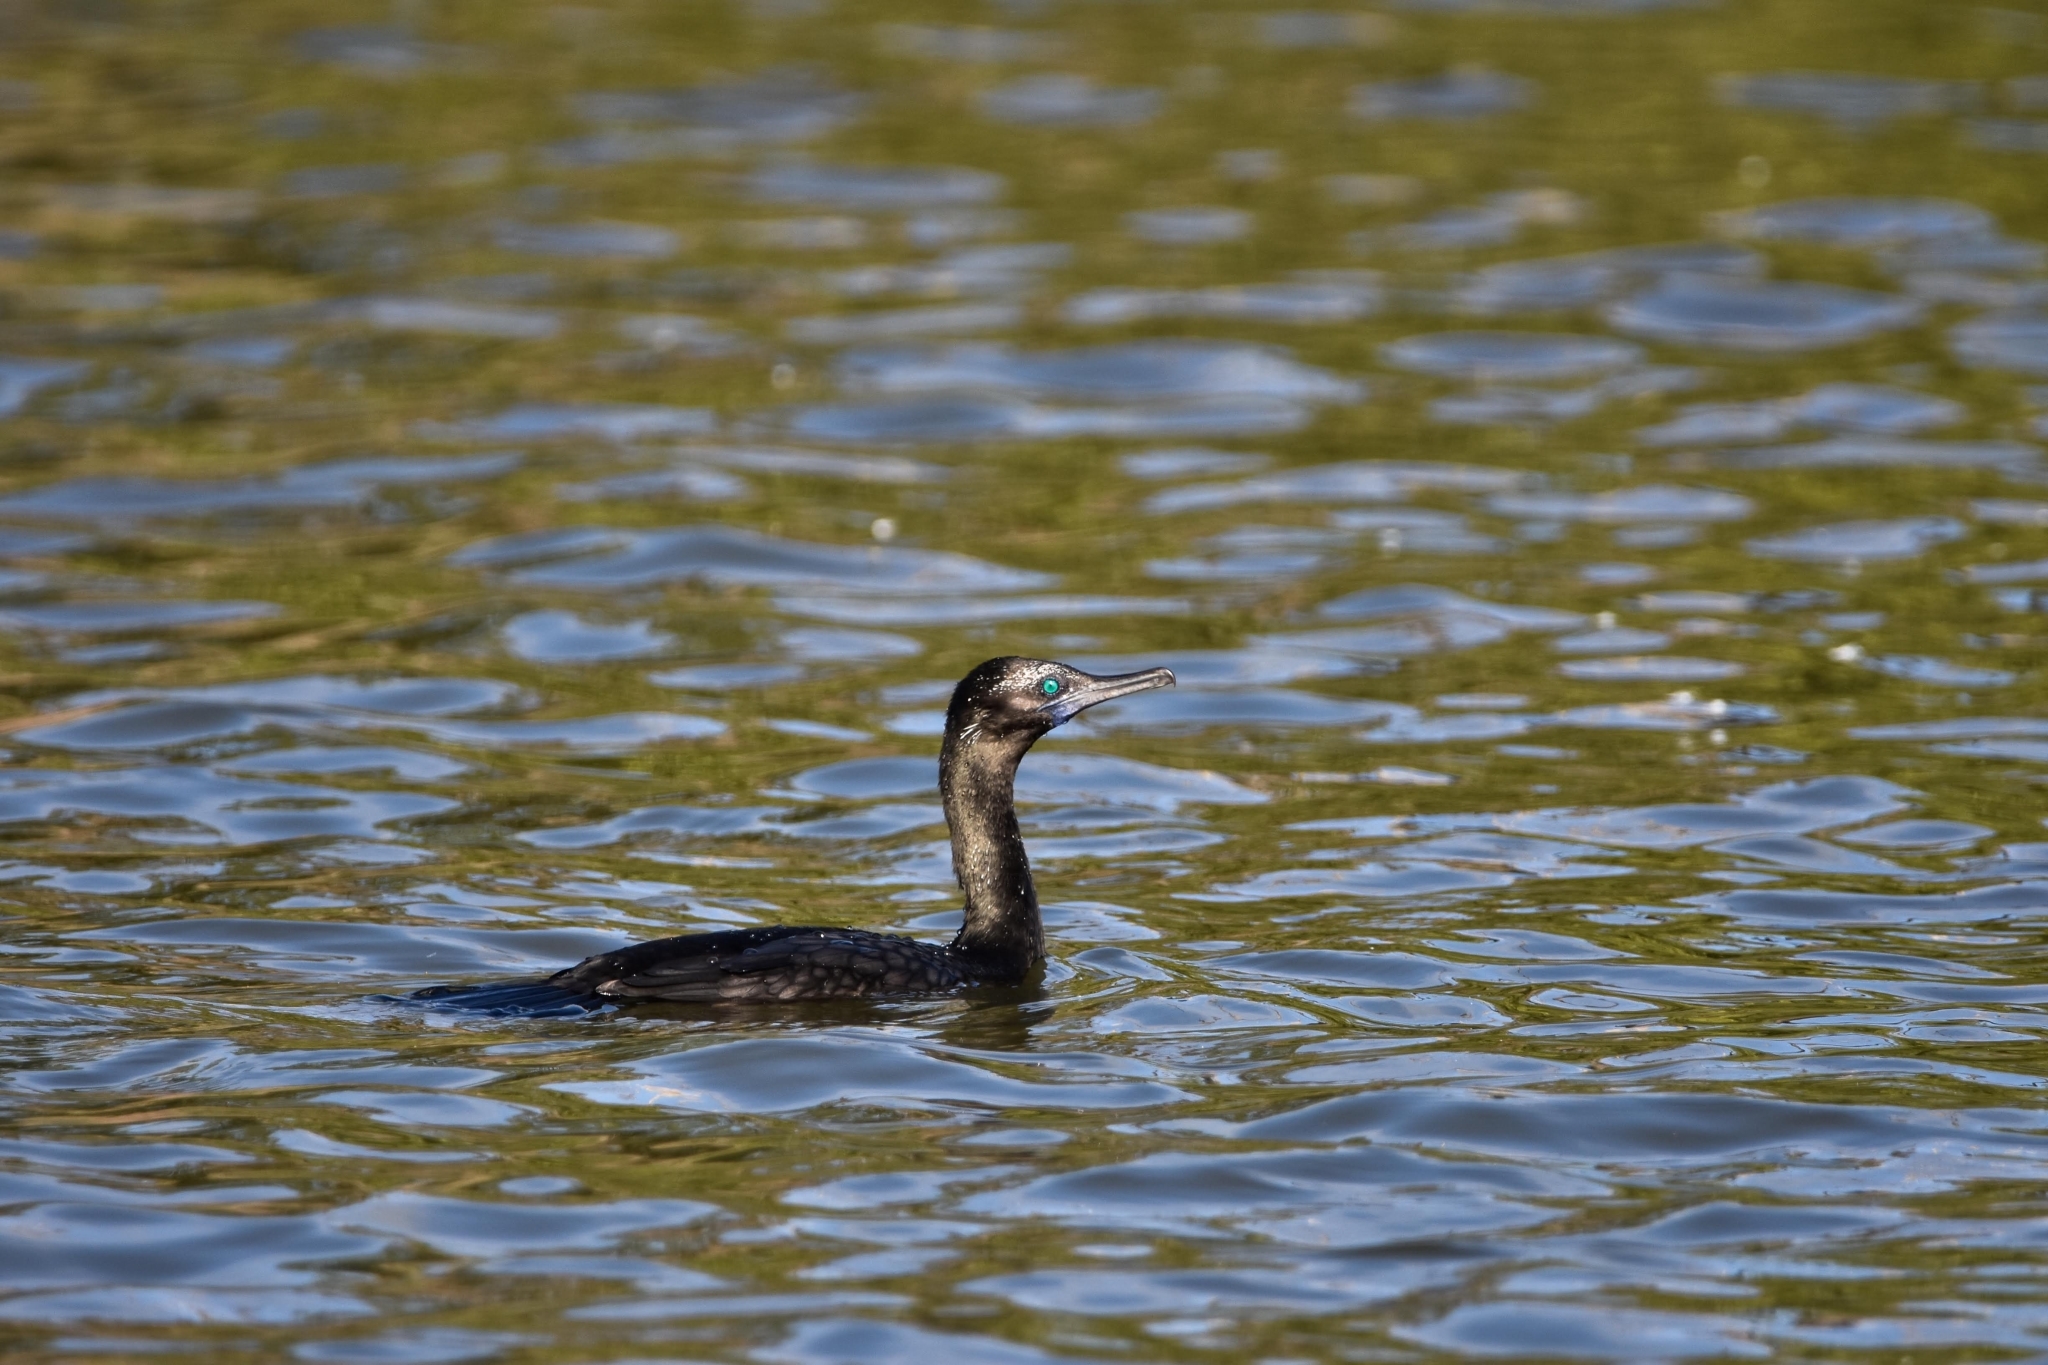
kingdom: Animalia
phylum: Chordata
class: Aves
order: Suliformes
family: Phalacrocoracidae
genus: Phalacrocorax
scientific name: Phalacrocorax sulcirostris
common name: Little black cormorant
